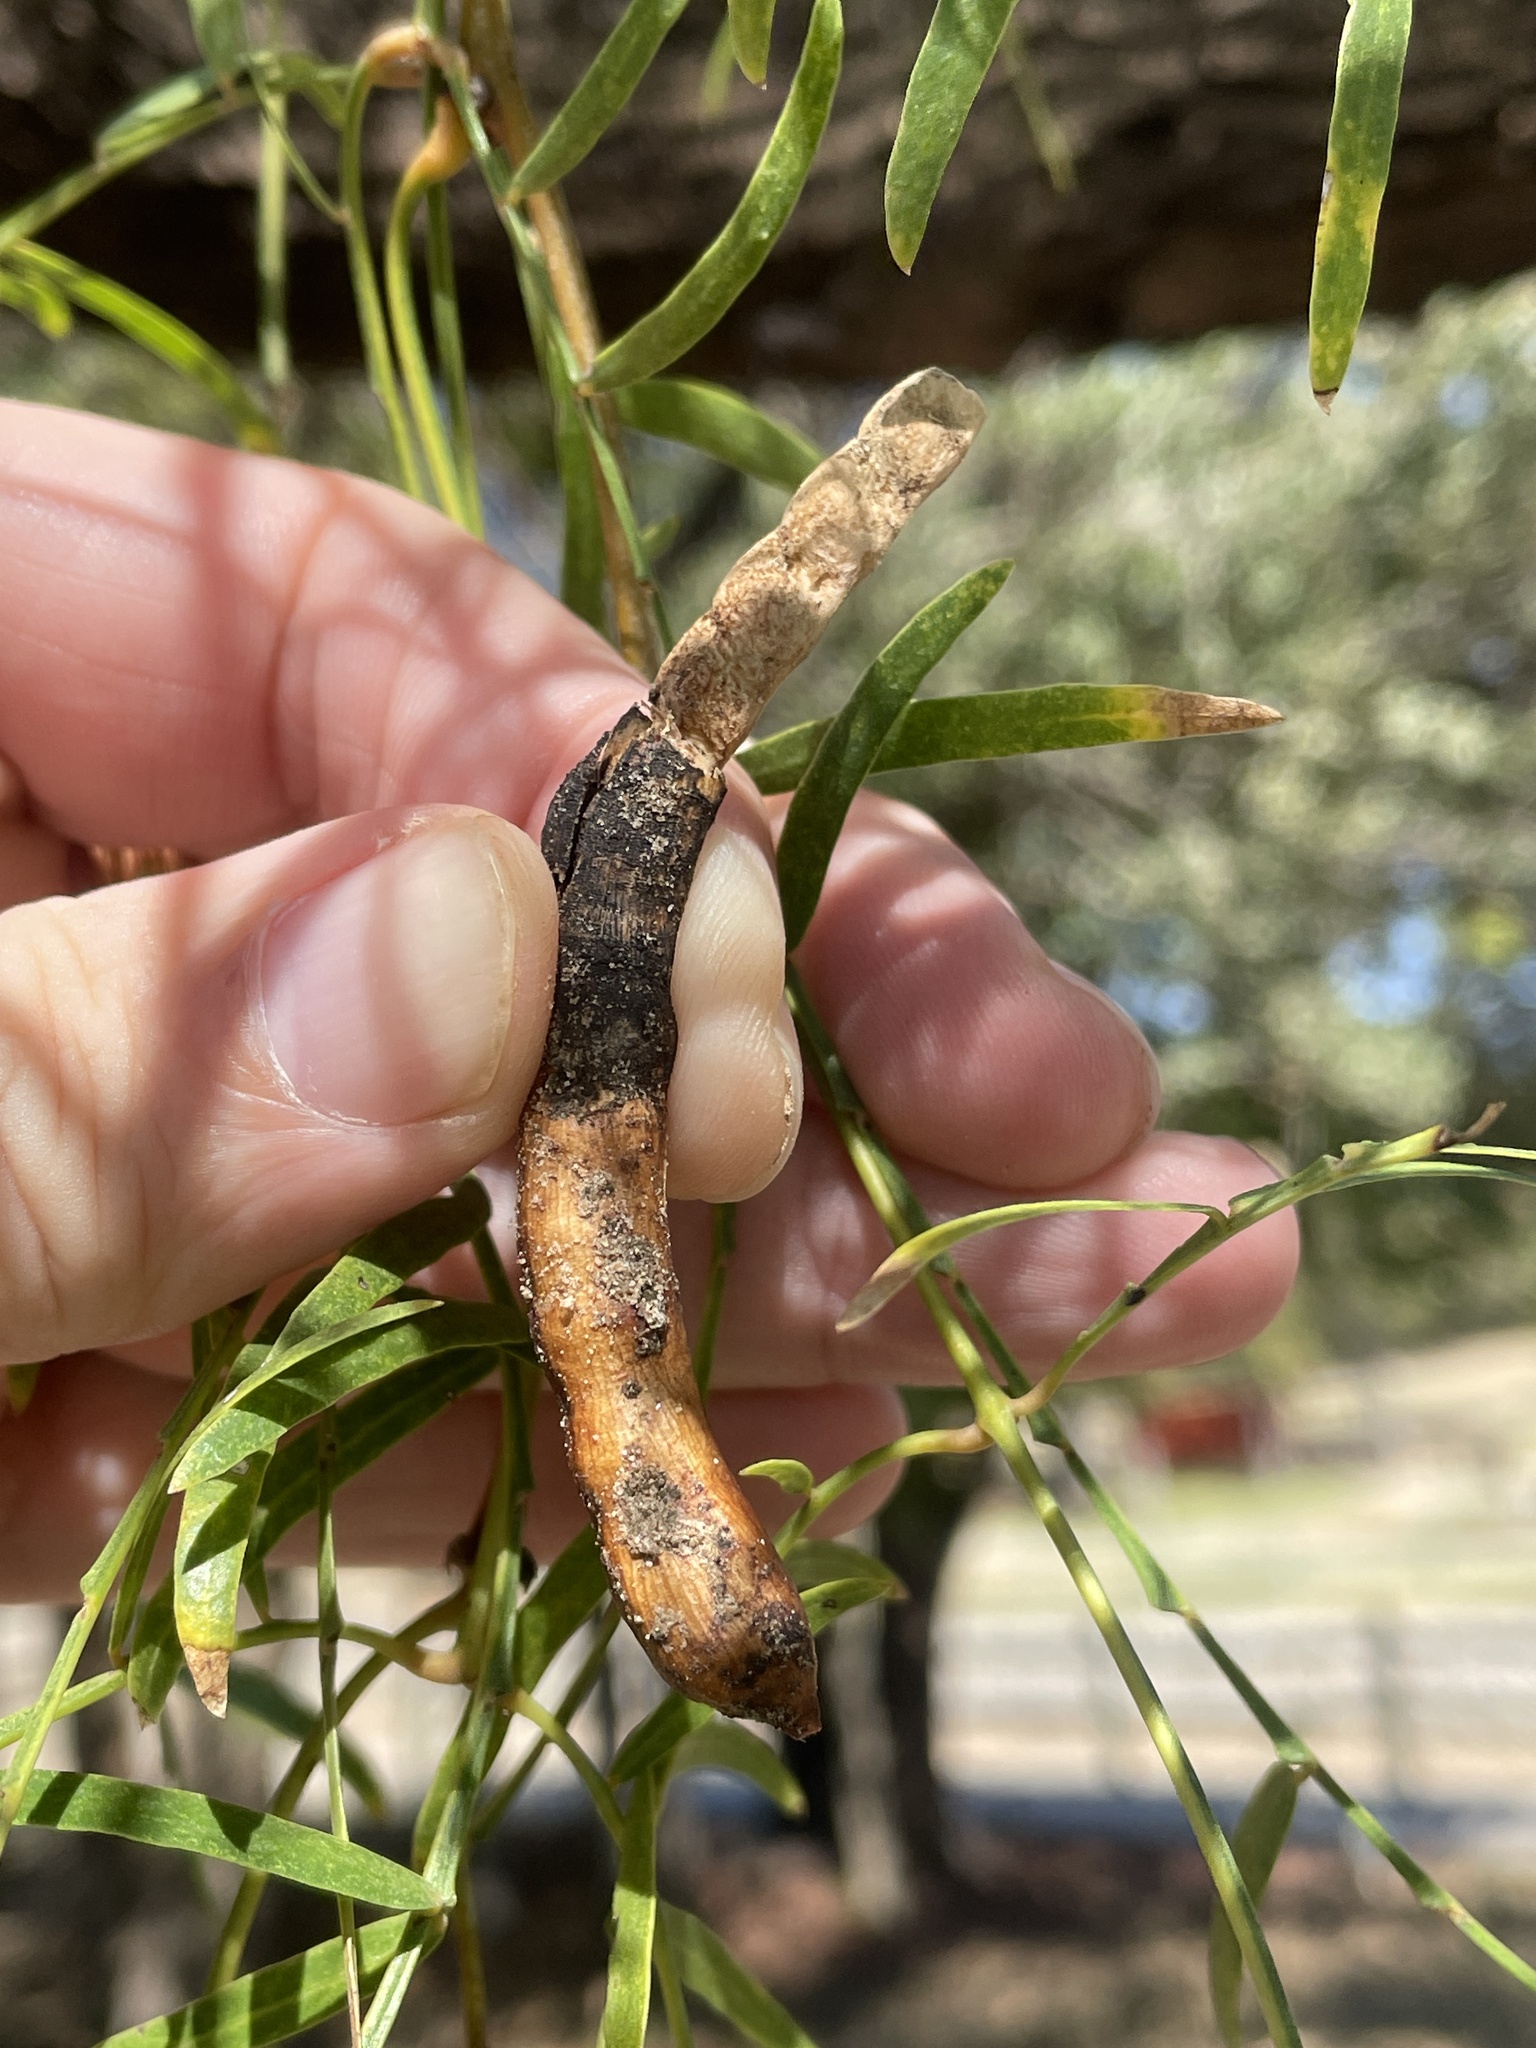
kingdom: Plantae
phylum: Tracheophyta
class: Magnoliopsida
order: Fabales
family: Fabaceae
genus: Prosopis
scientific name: Prosopis glandulosa
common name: Honey mesquite
